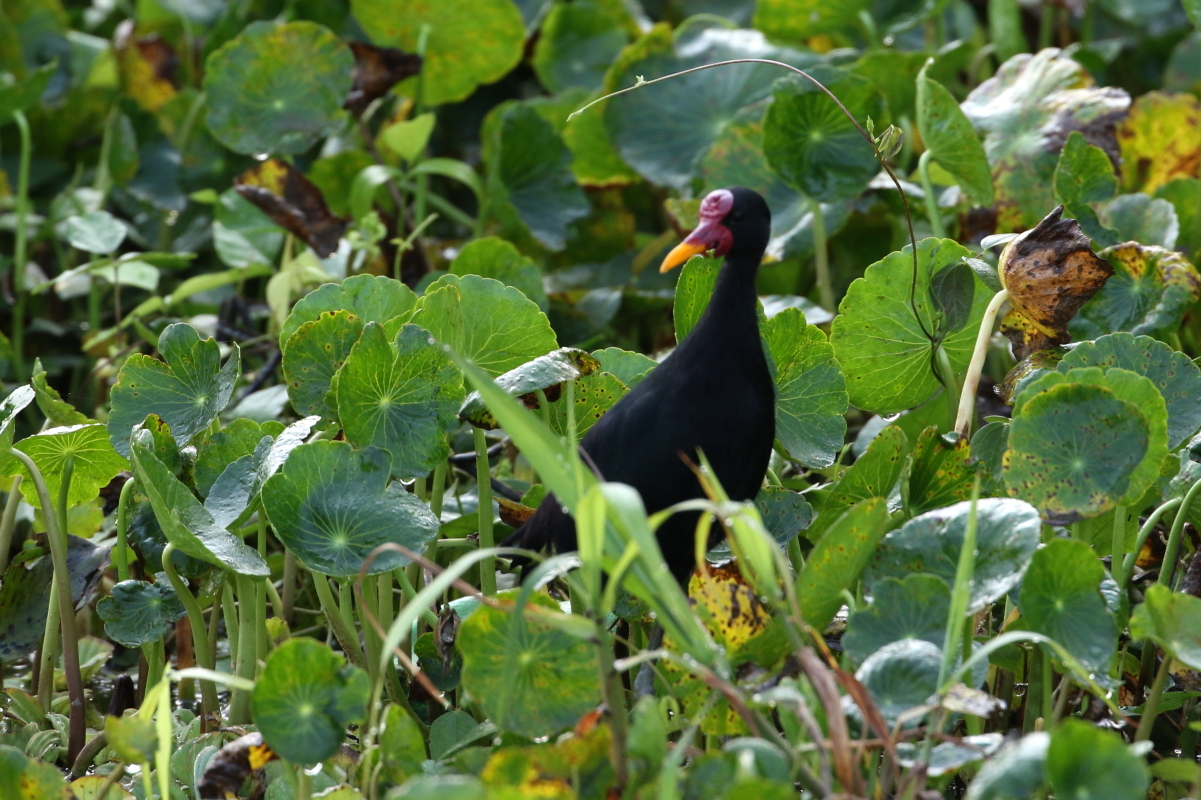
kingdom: Animalia
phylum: Chordata
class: Aves
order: Charadriiformes
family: Jacanidae
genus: Jacana
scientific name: Jacana jacana
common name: Wattled jacana
